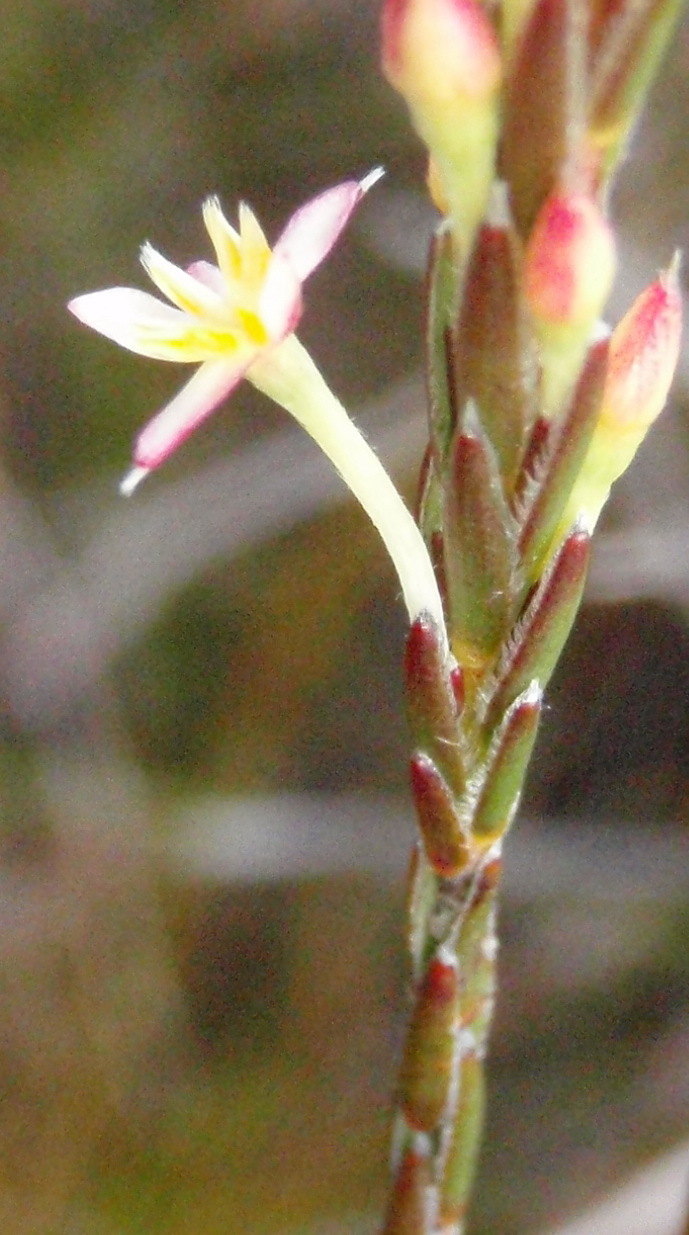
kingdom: Plantae
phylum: Tracheophyta
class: Magnoliopsida
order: Malvales
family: Thymelaeaceae
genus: Struthiola
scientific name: Struthiola ciliata
